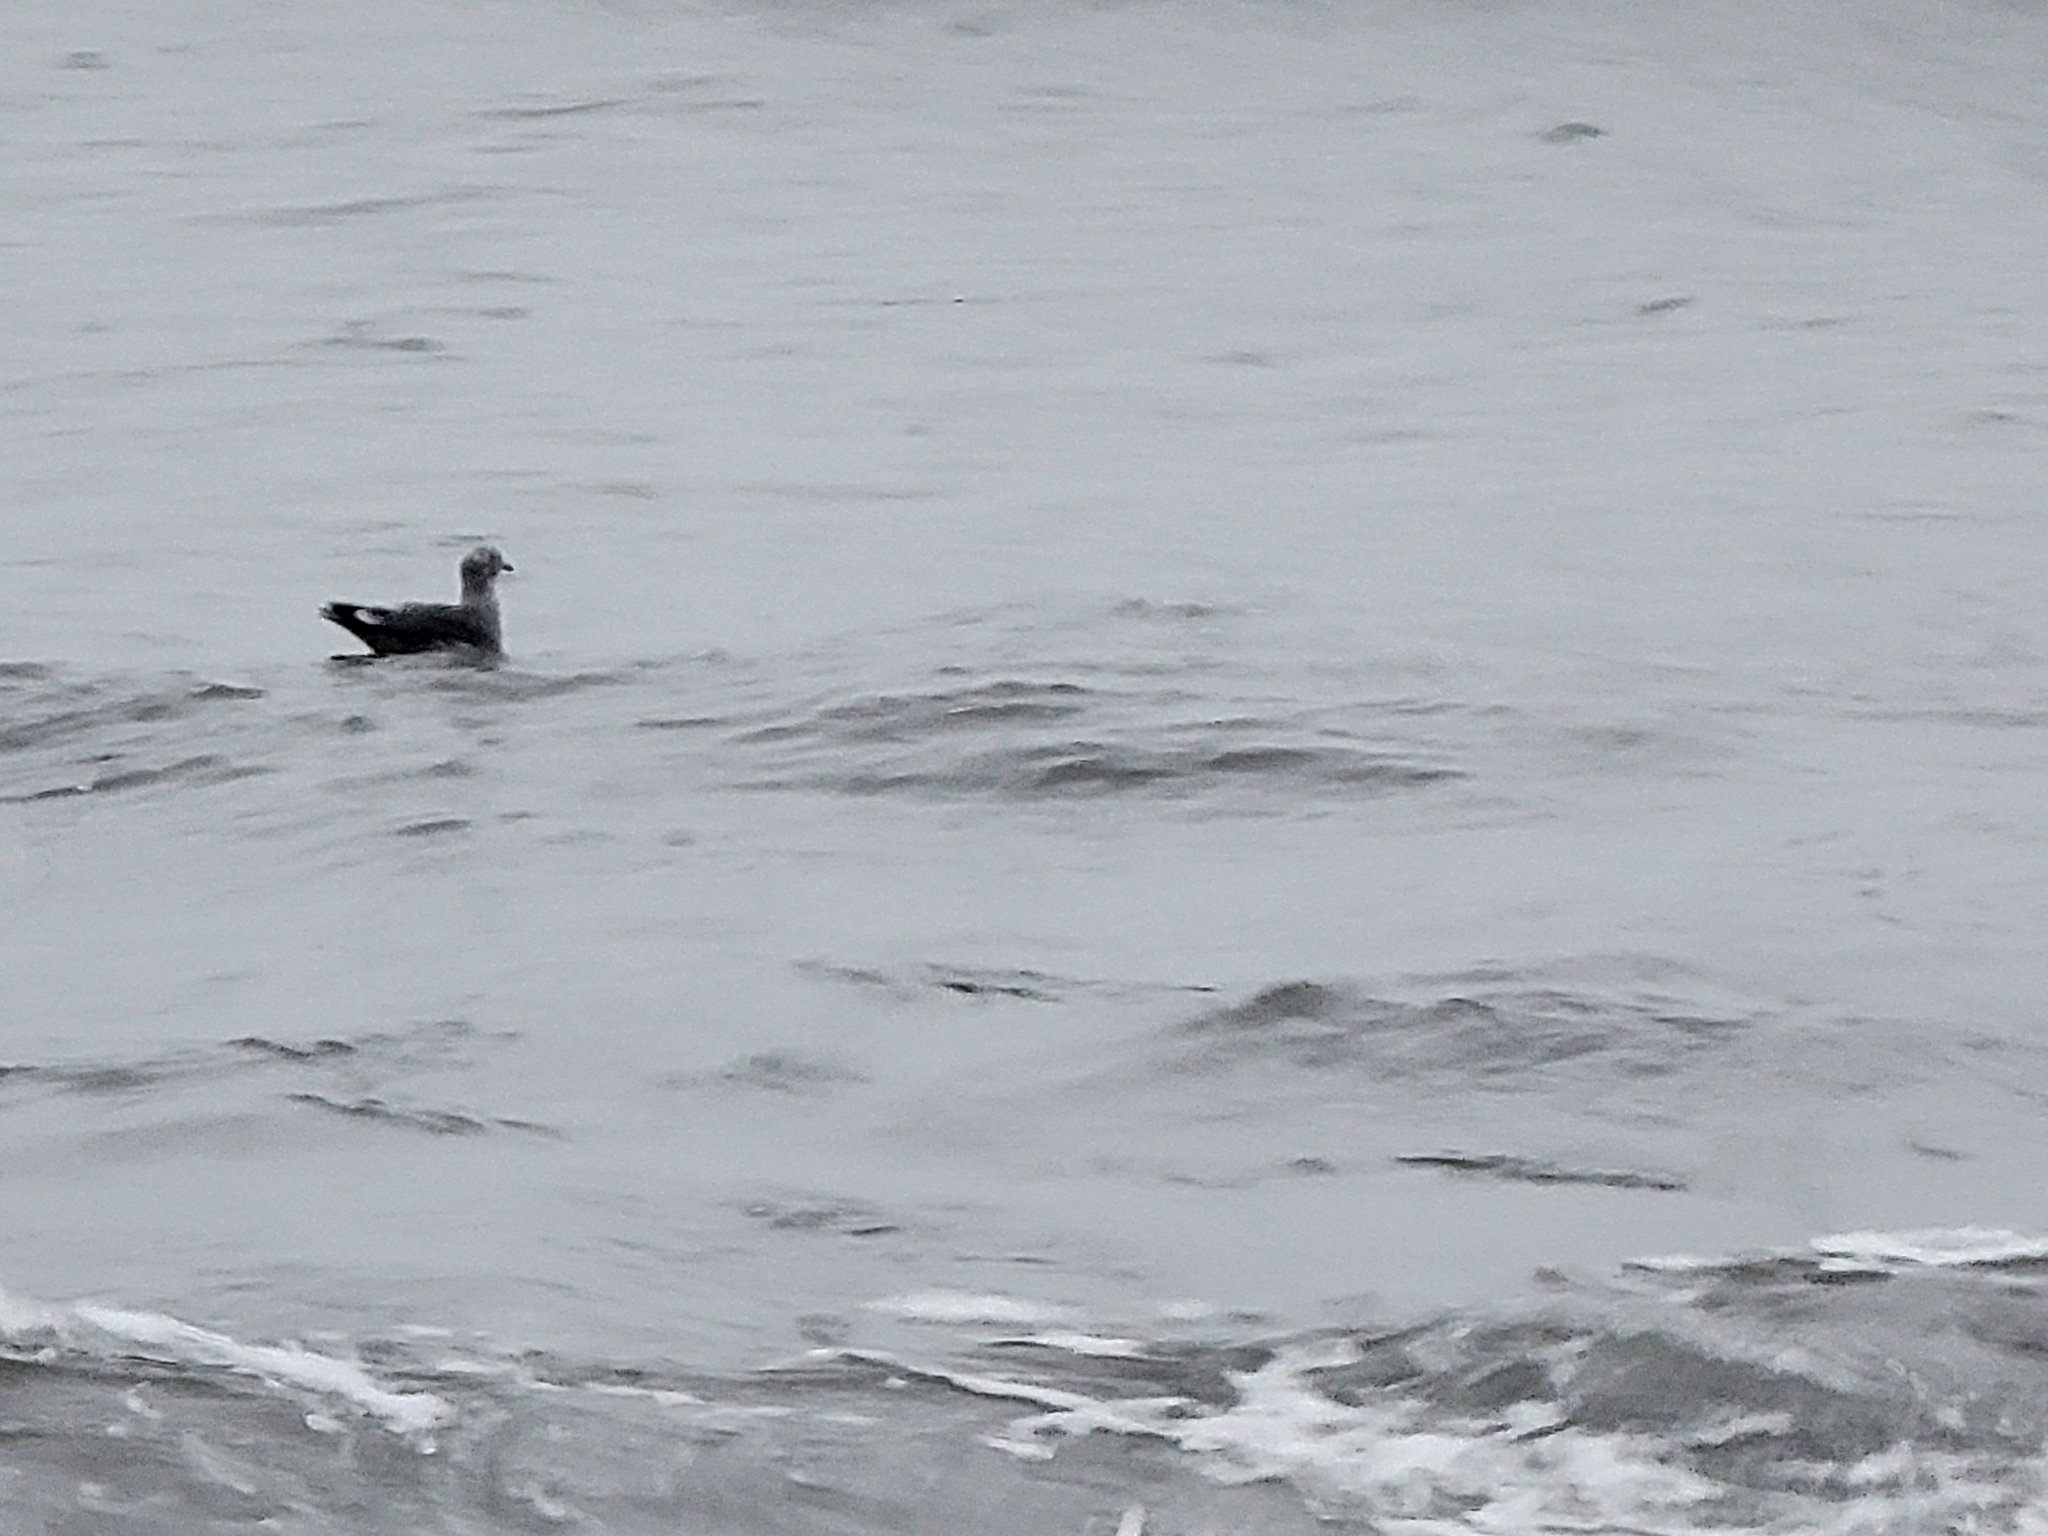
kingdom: Animalia
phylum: Chordata
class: Aves
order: Charadriiformes
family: Laridae
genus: Larus
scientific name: Larus heermanni
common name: Heermann's gull
